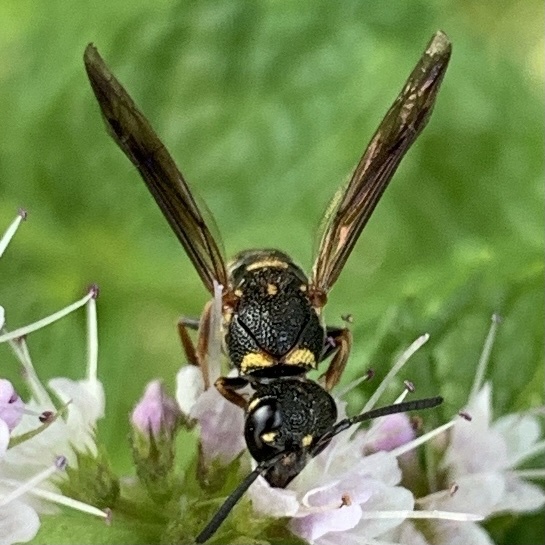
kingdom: Animalia
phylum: Arthropoda
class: Insecta
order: Hymenoptera
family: Eumenidae
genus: Parancistrocerus
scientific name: Parancistrocerus fulvipes
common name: Potter wasp
